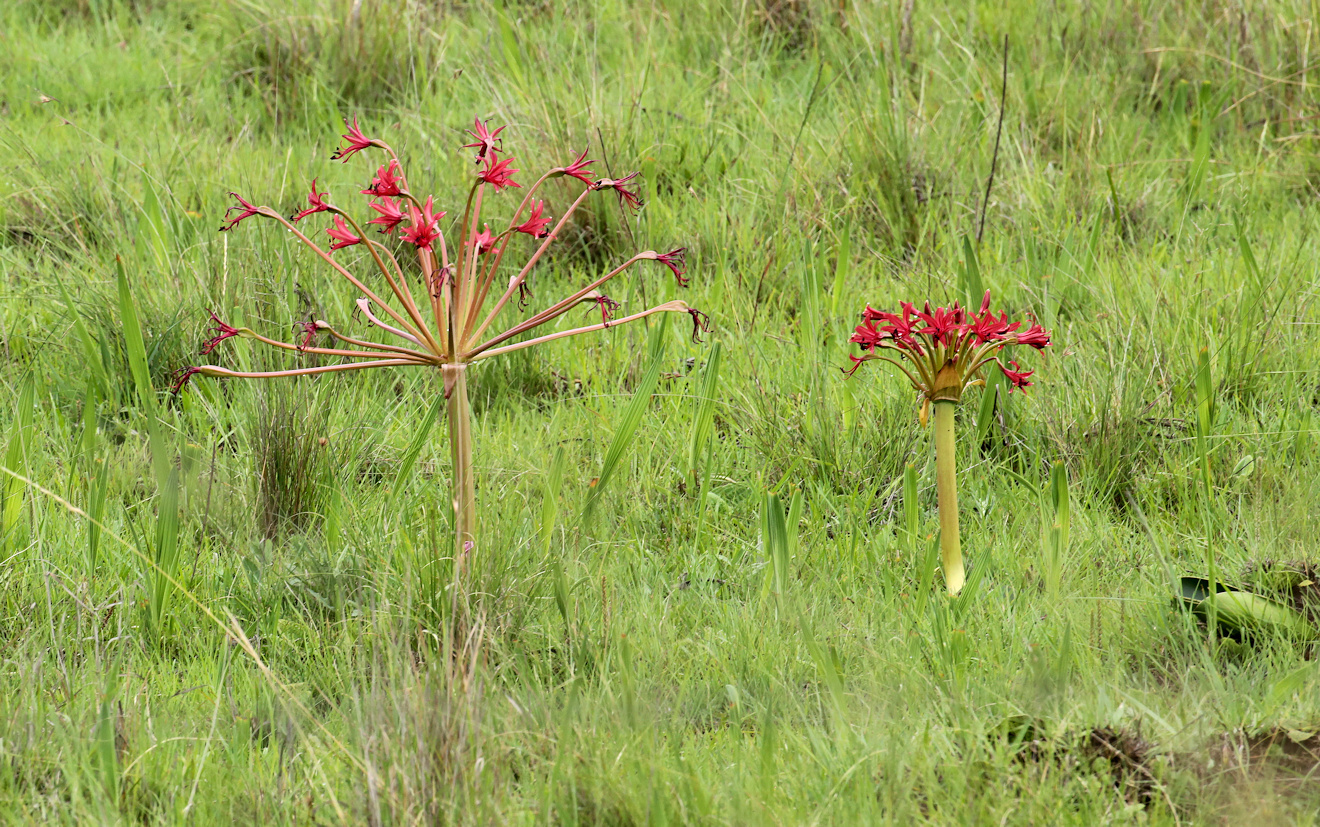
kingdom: Plantae
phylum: Tracheophyta
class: Liliopsida
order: Asparagales
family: Amaryllidaceae
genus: Brunsvigia
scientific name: Brunsvigia radulosa
